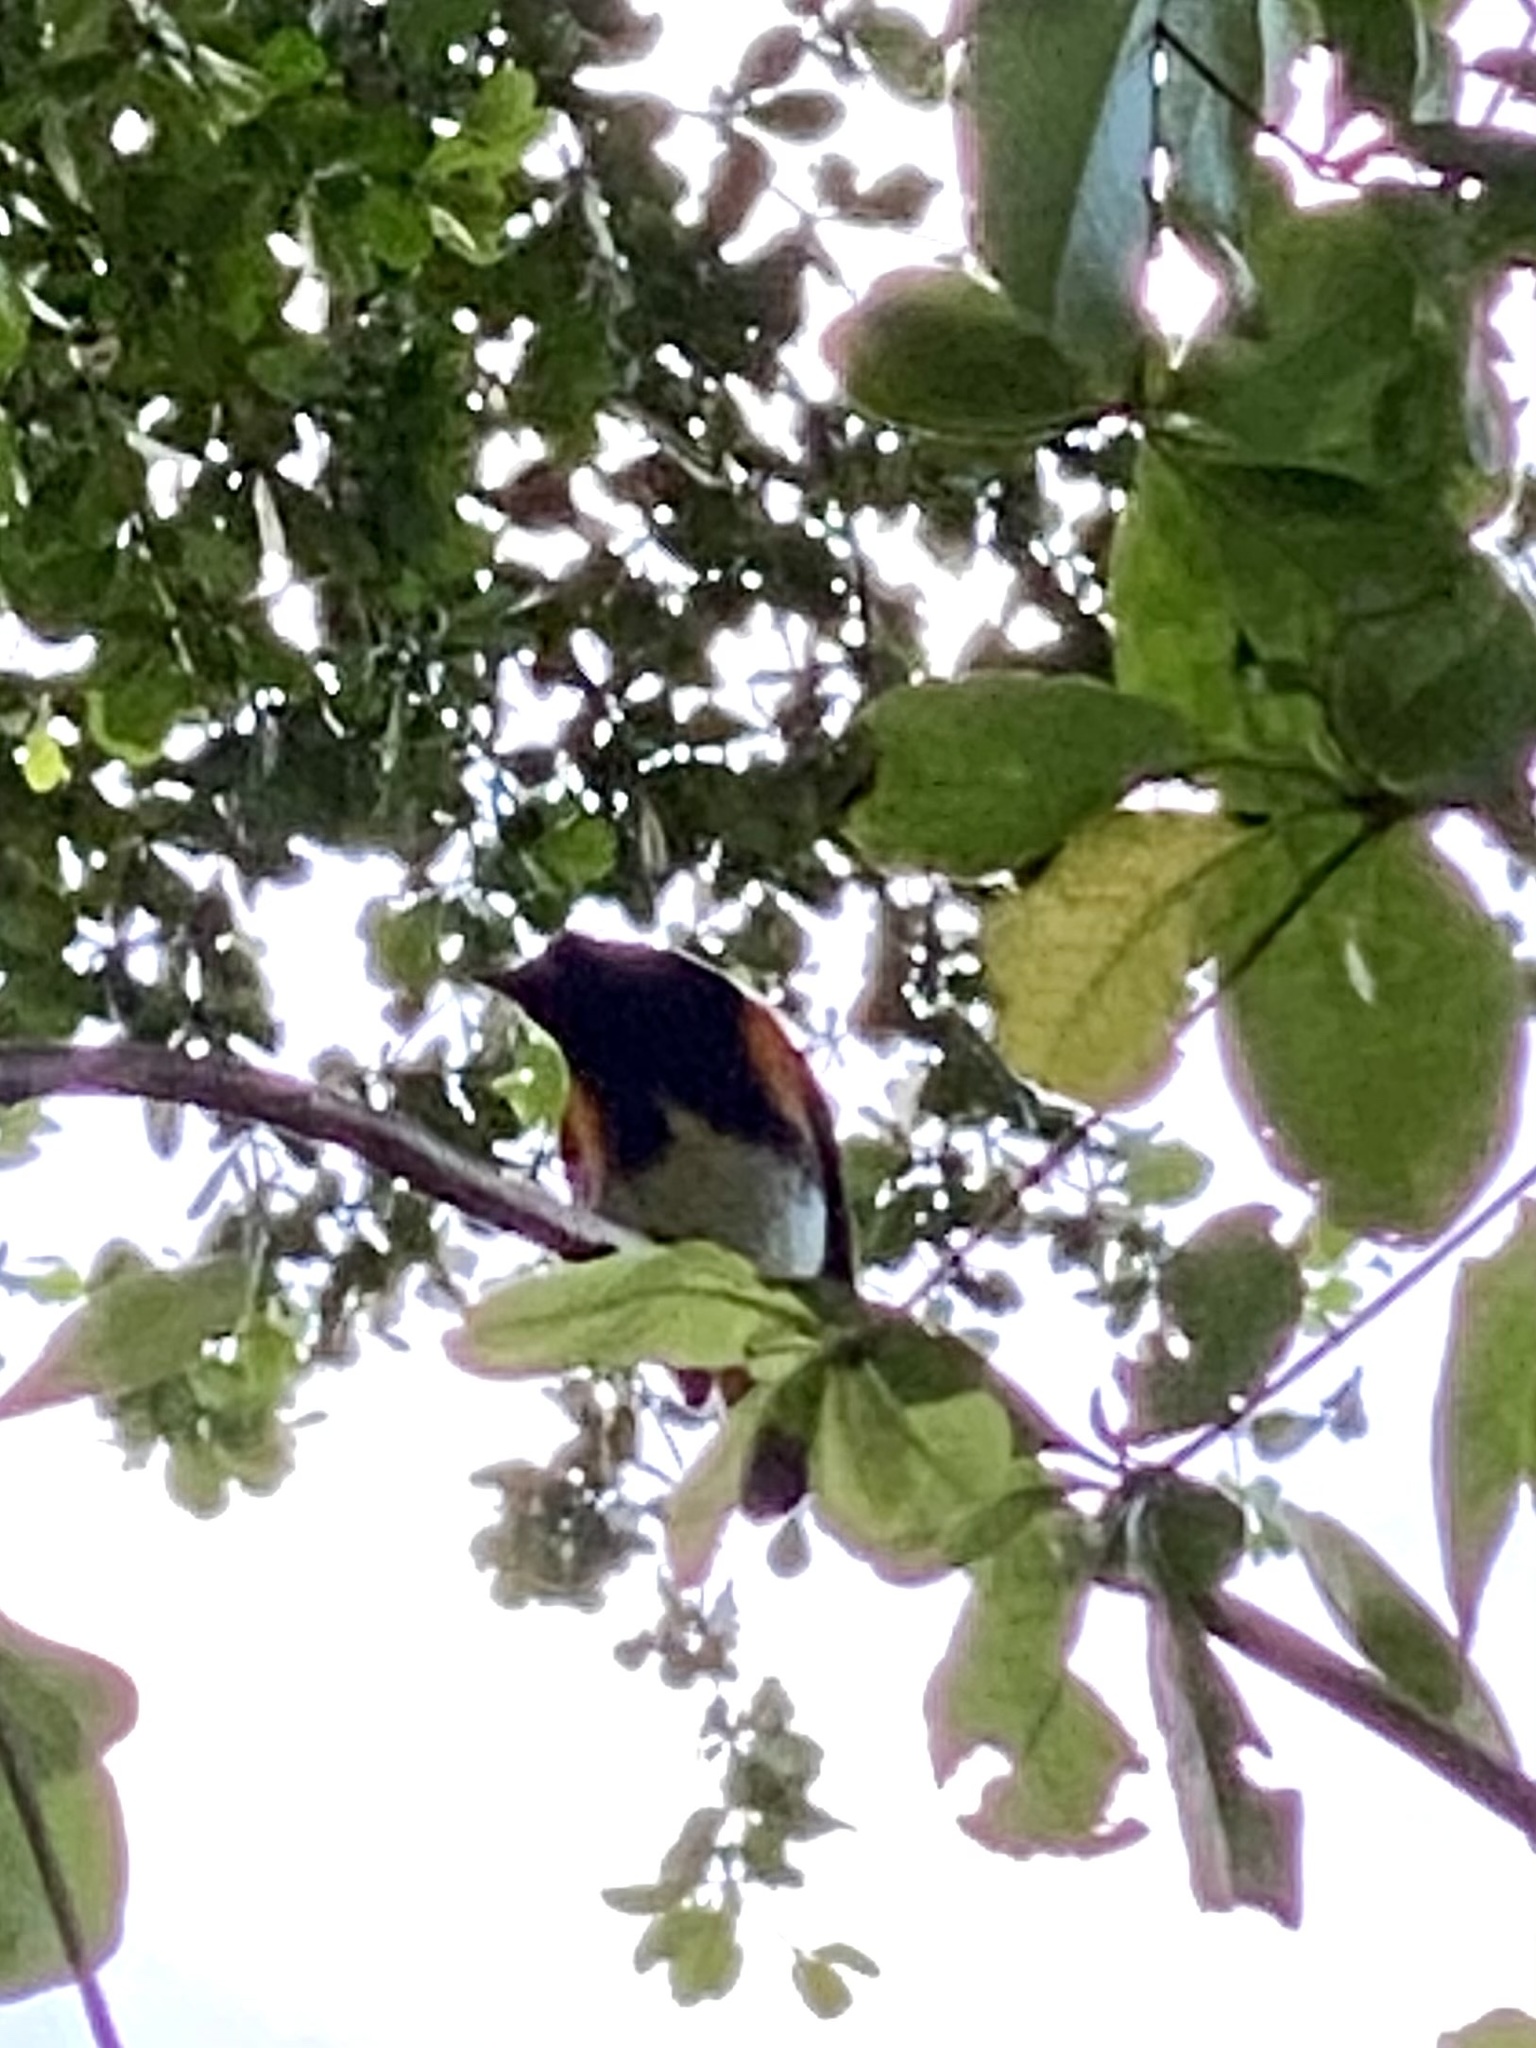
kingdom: Animalia
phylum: Chordata
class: Aves
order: Passeriformes
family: Parulidae
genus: Setophaga
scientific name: Setophaga ruticilla
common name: American redstart
